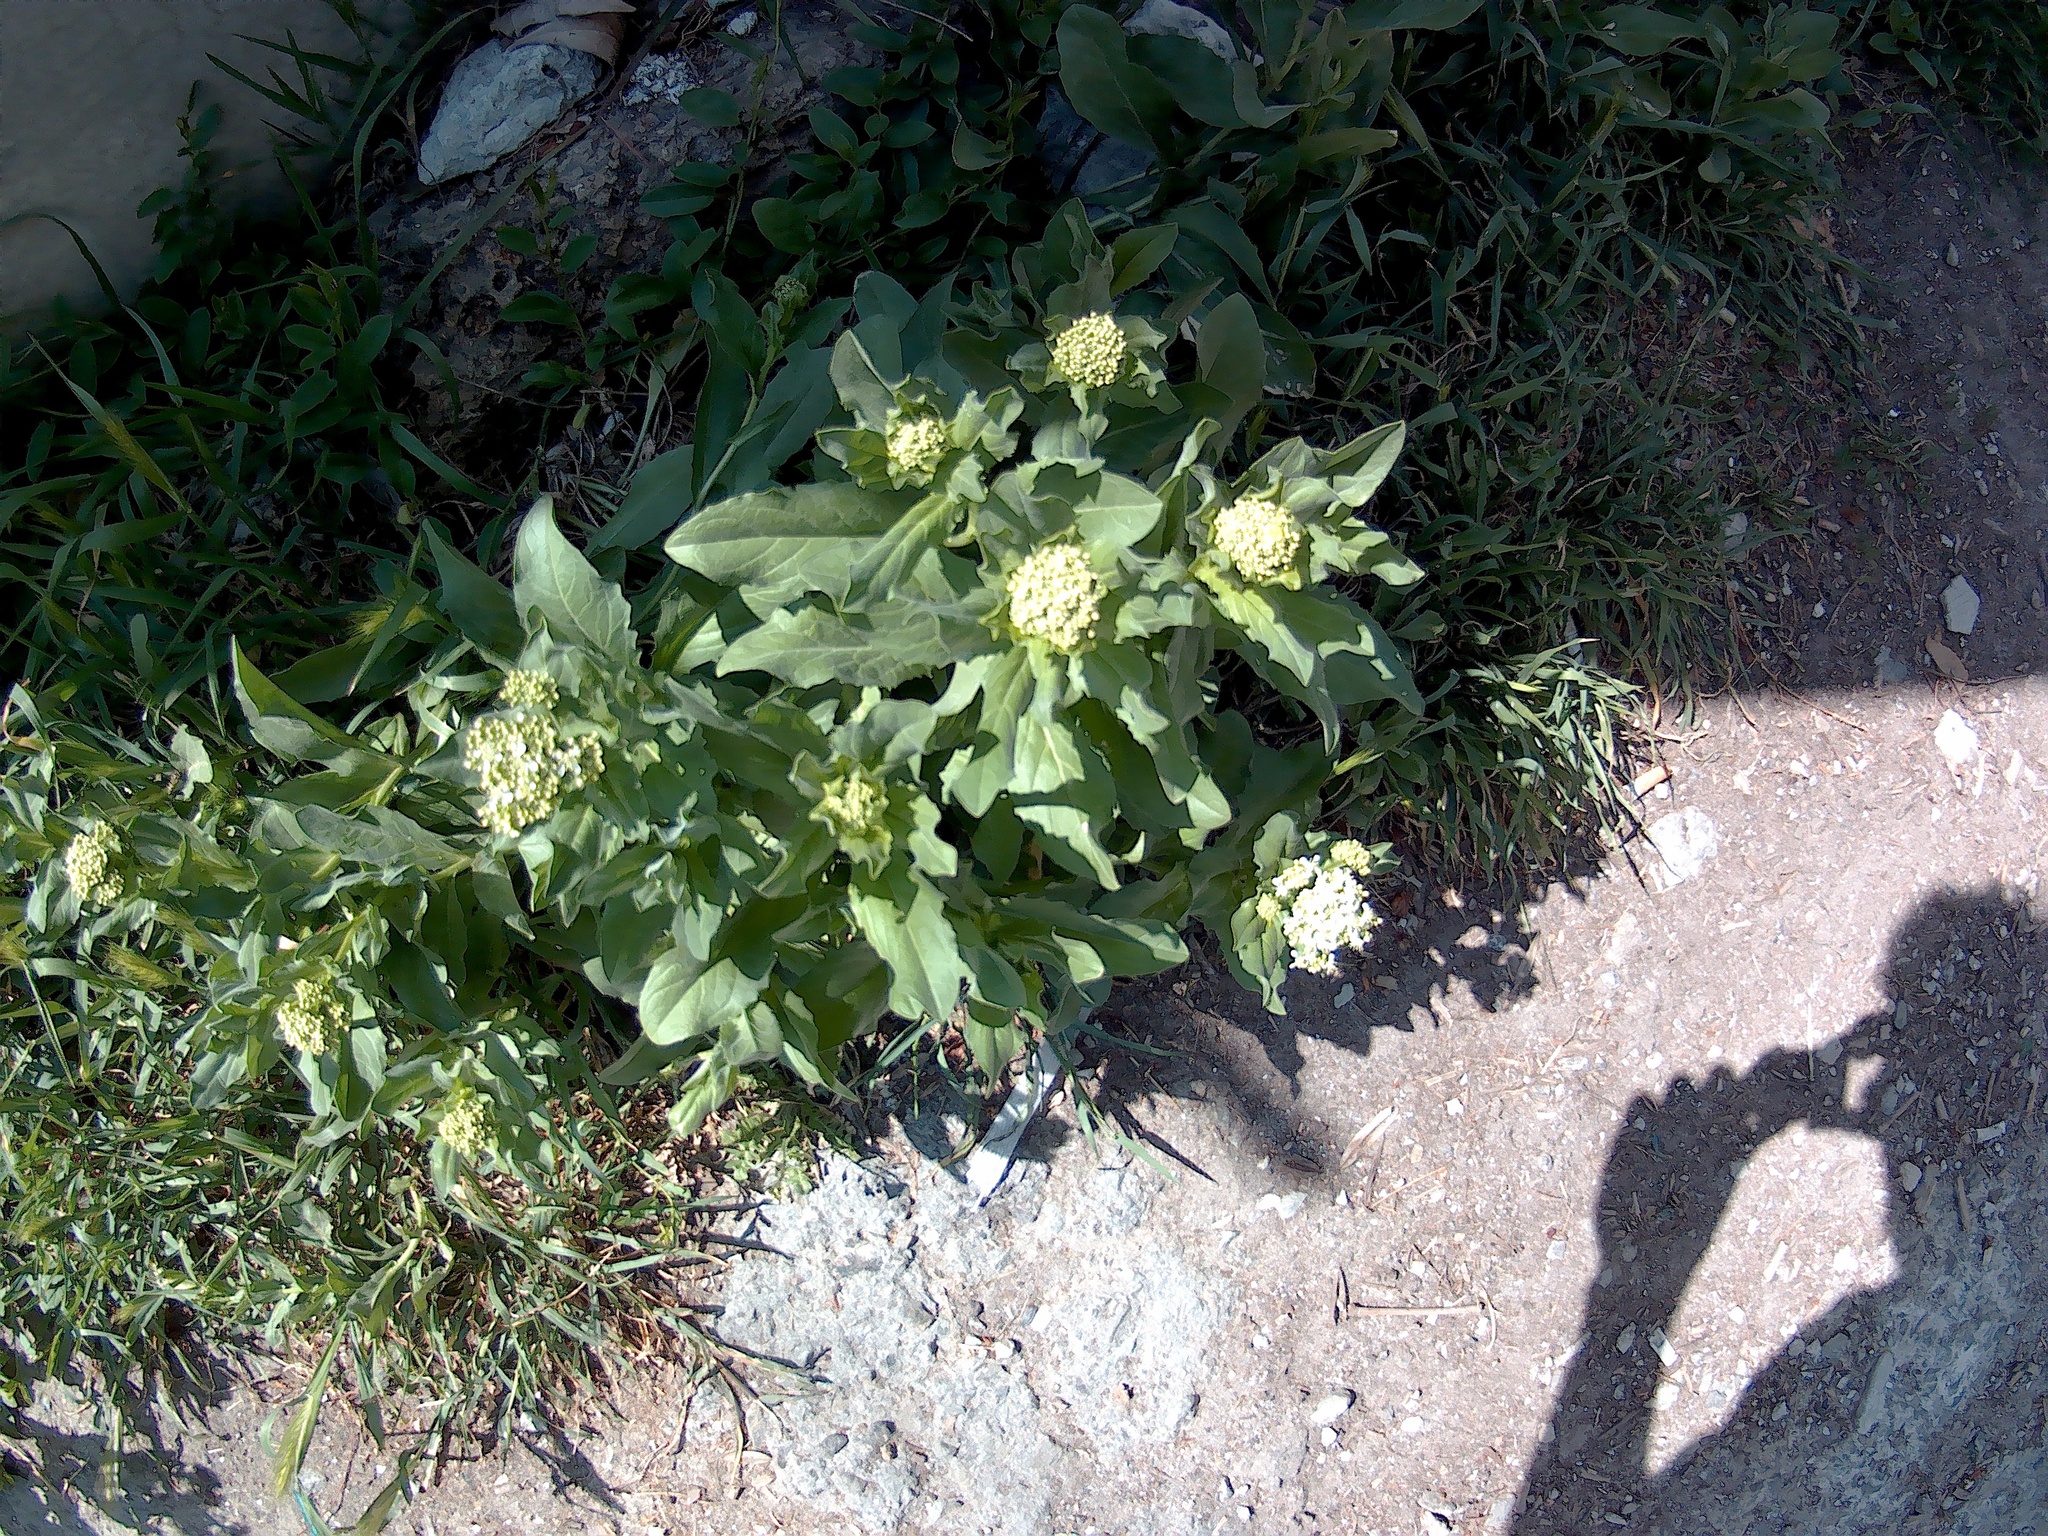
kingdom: Plantae
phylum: Tracheophyta
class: Magnoliopsida
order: Brassicales
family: Brassicaceae
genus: Lepidium
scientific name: Lepidium draba
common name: Hoary cress
